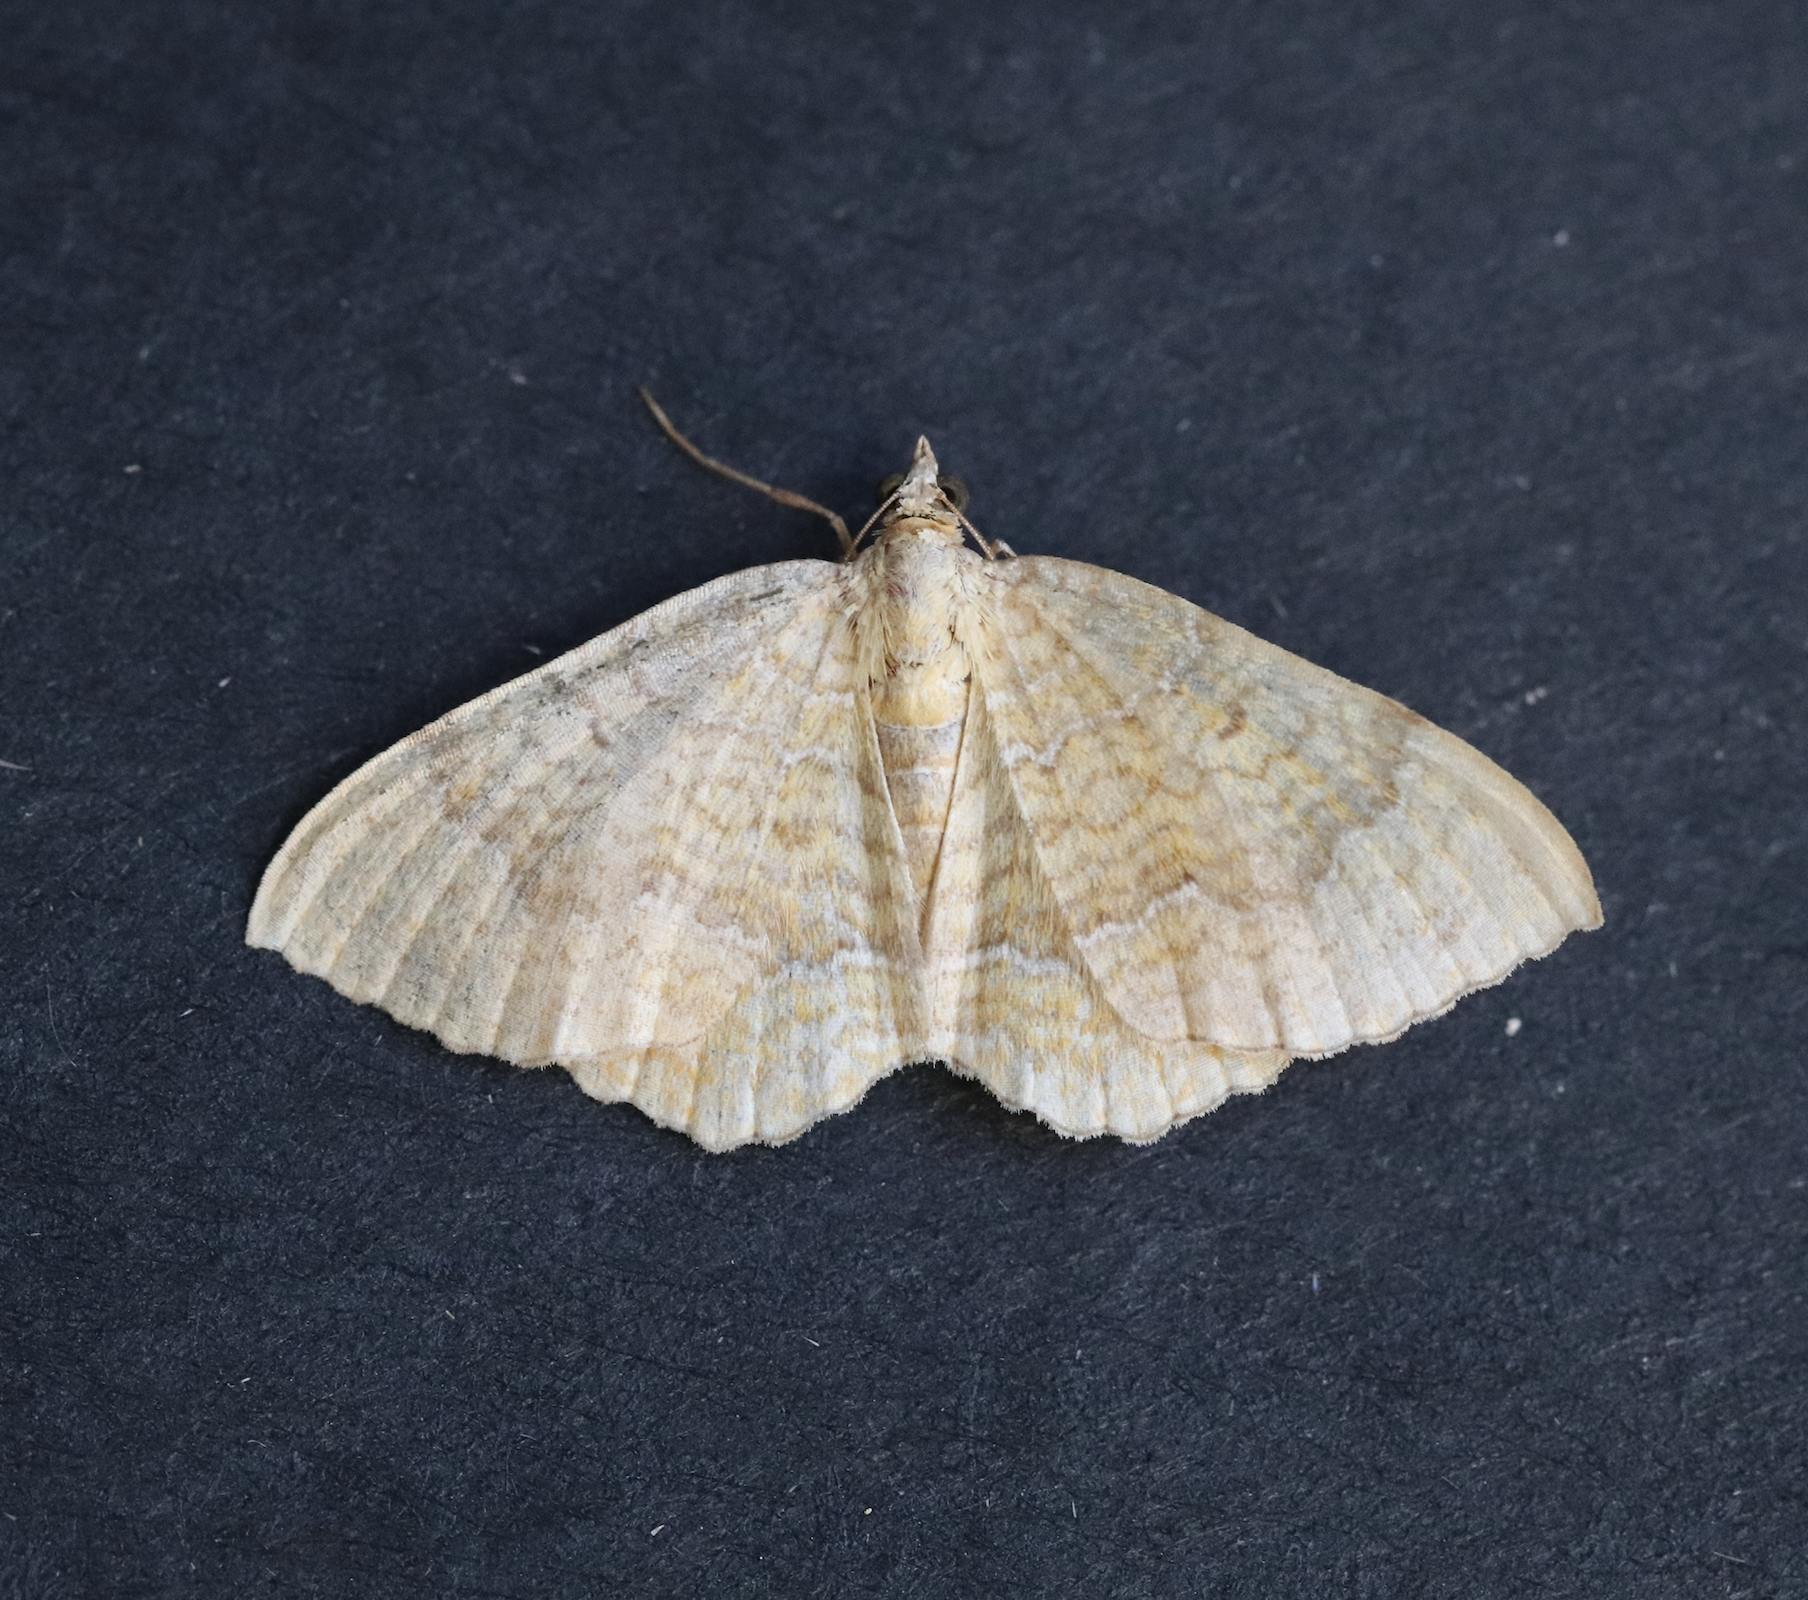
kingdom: Animalia
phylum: Arthropoda
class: Insecta
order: Lepidoptera
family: Geometridae
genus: Camptogramma
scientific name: Camptogramma bilineata
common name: Yellow shell
